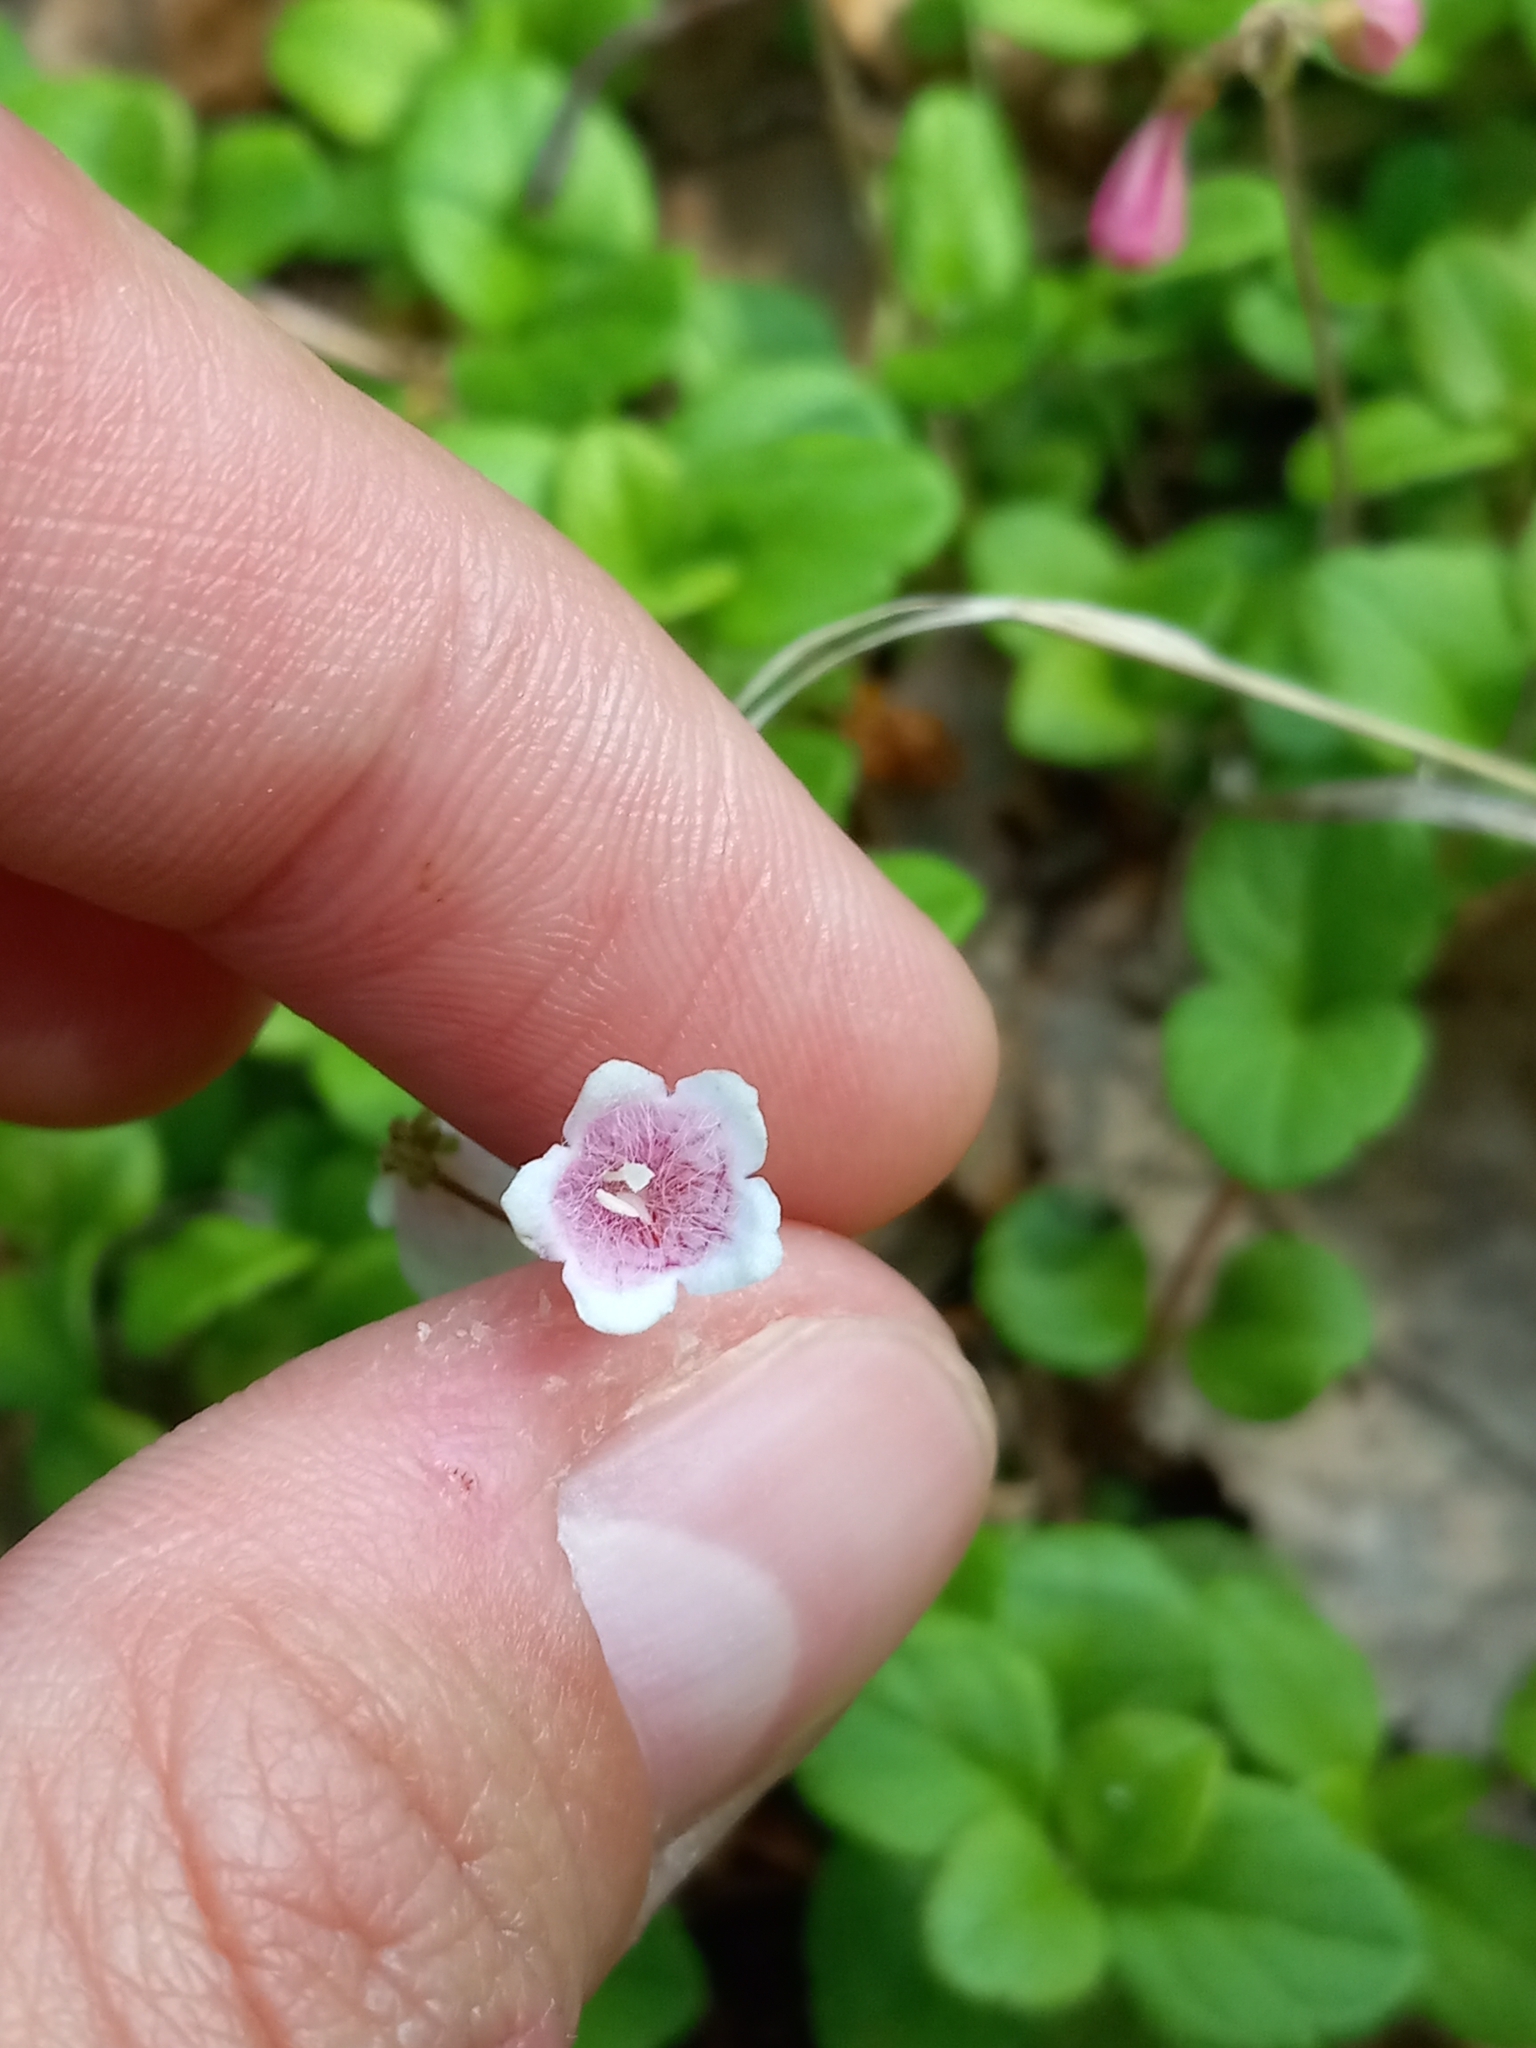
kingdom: Plantae
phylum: Tracheophyta
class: Magnoliopsida
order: Dipsacales
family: Caprifoliaceae
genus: Linnaea
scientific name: Linnaea borealis
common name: Twinflower
